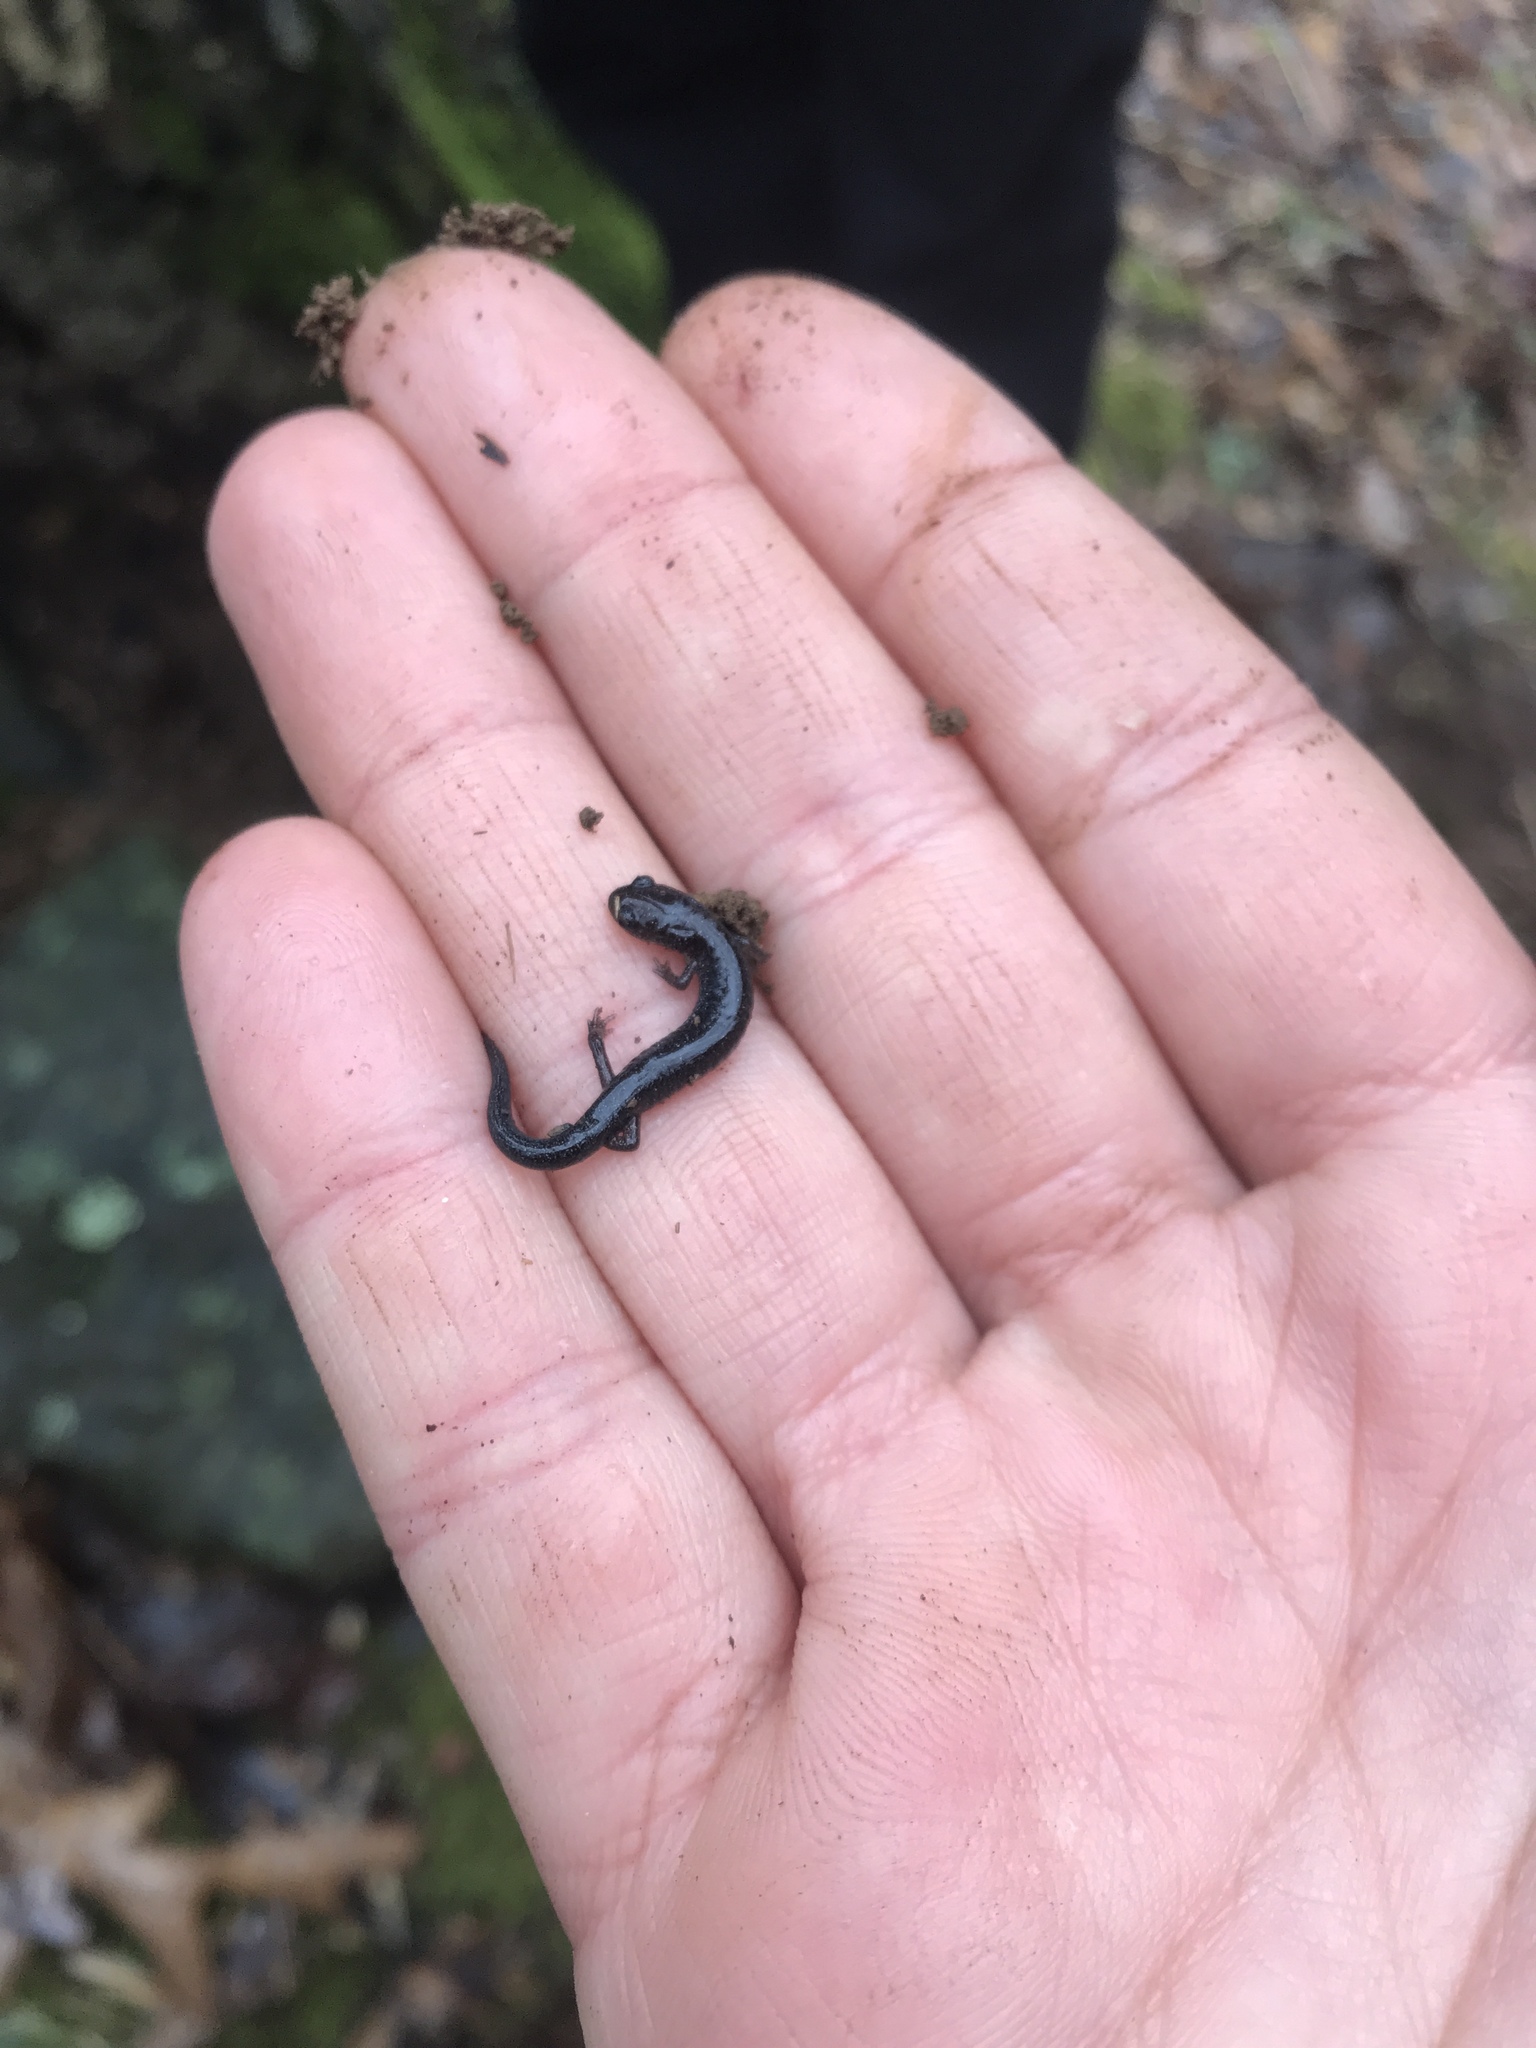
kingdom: Animalia
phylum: Chordata
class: Amphibia
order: Caudata
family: Plethodontidae
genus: Plethodon
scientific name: Plethodon cinereus
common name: Redback salamander
